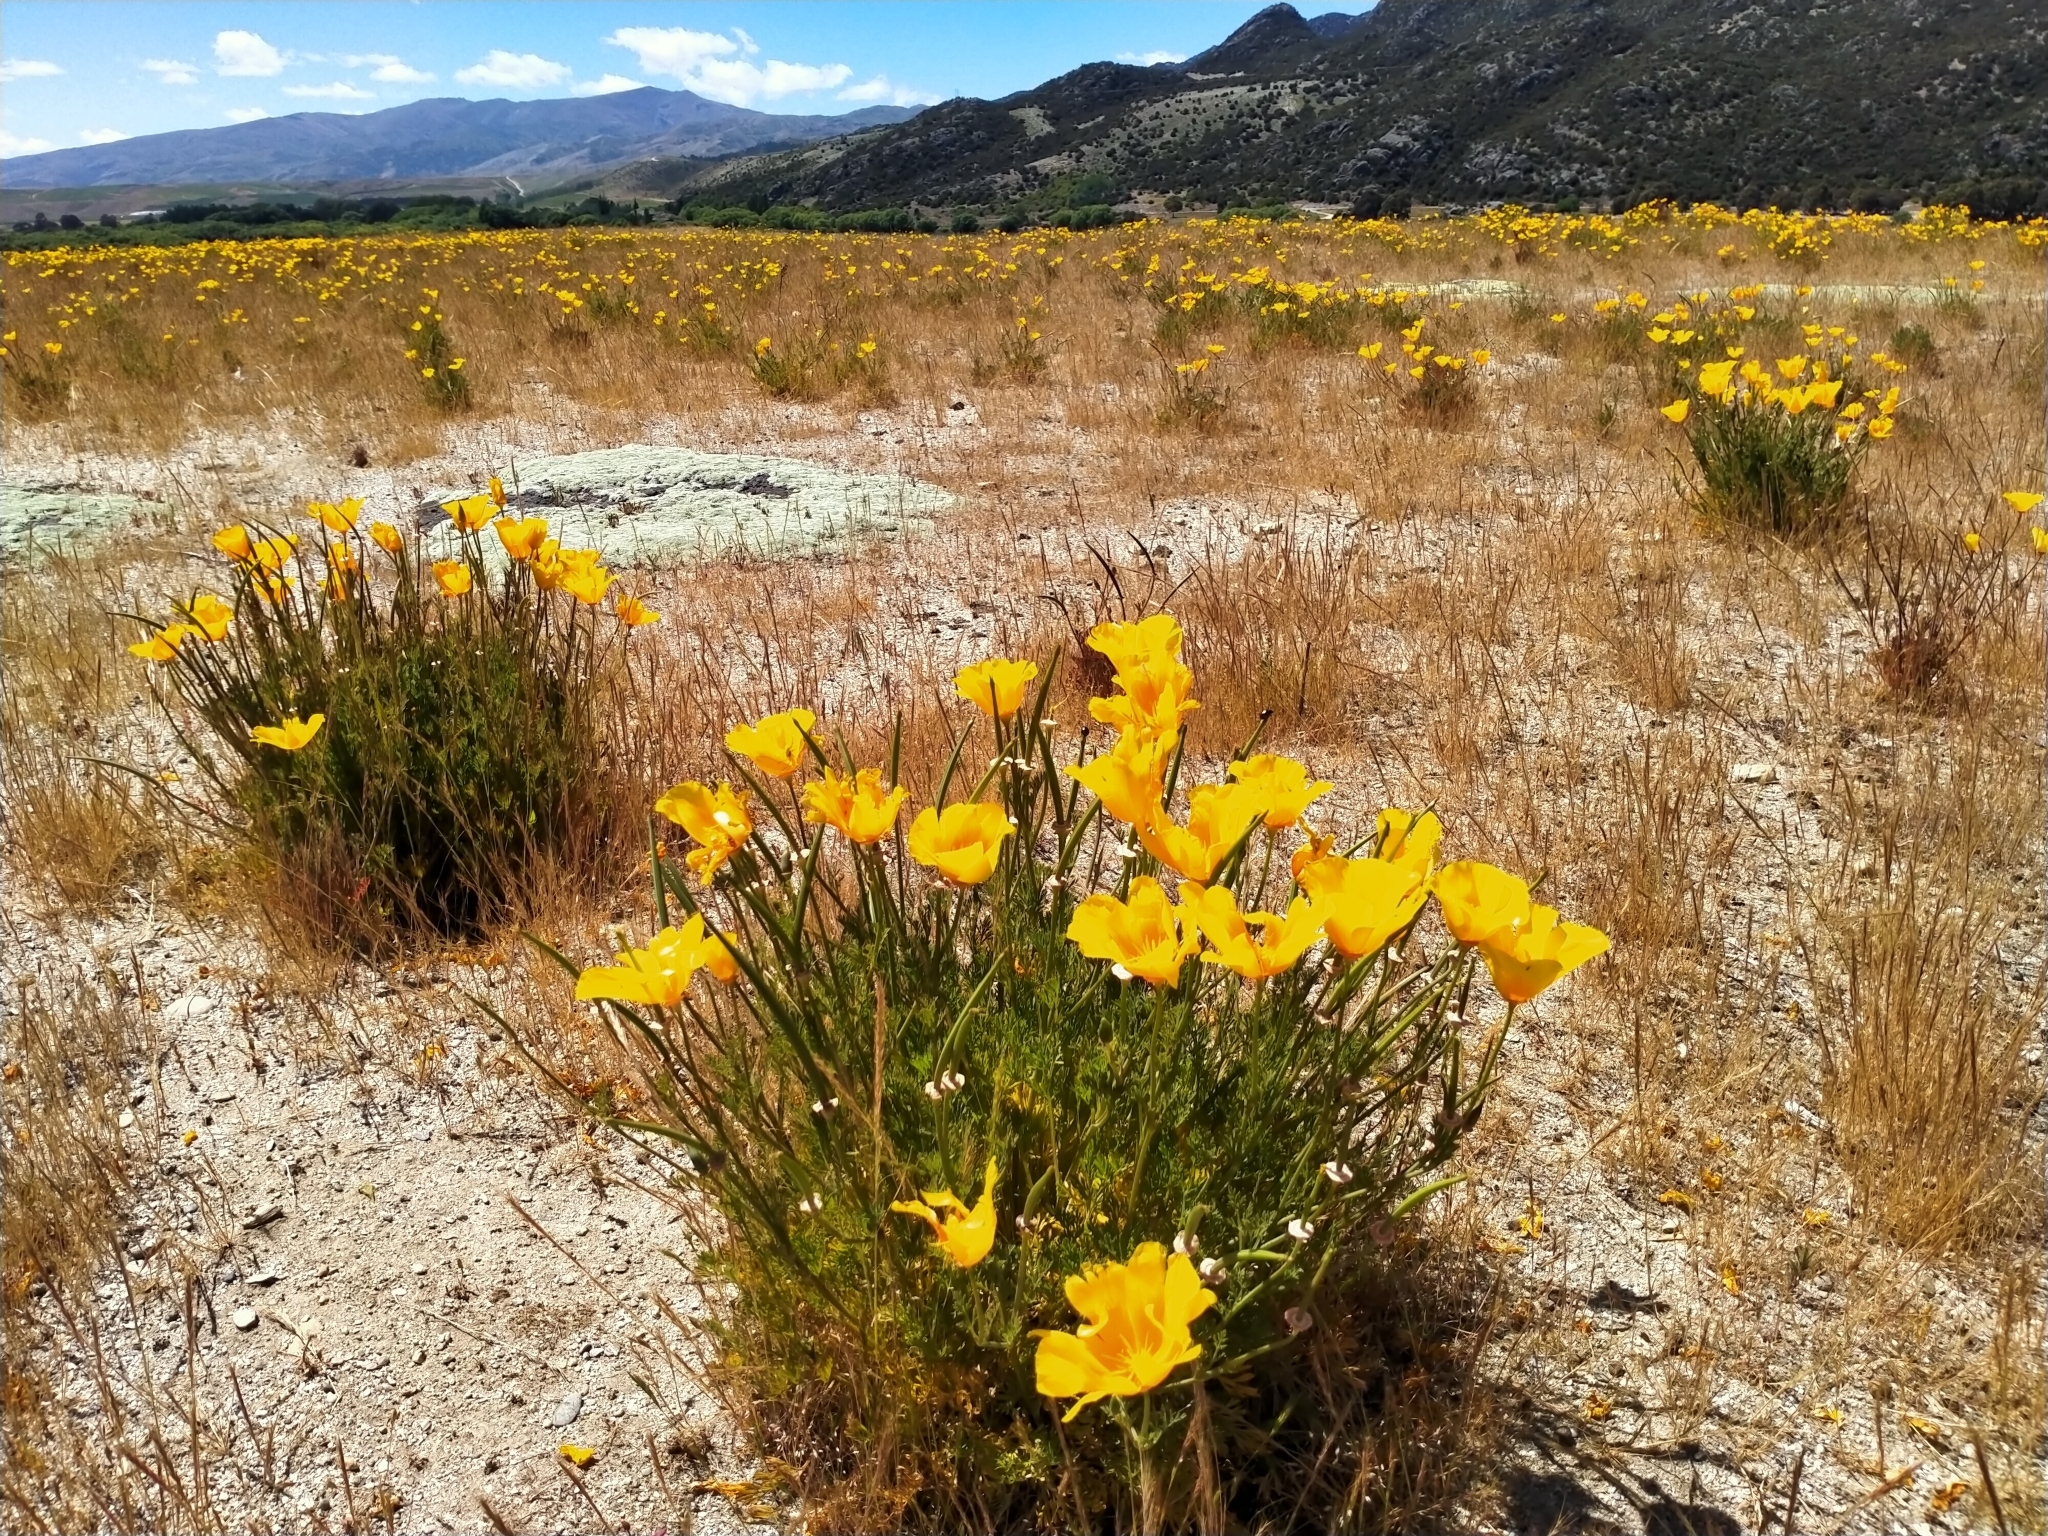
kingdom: Plantae
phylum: Tracheophyta
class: Magnoliopsida
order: Ranunculales
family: Papaveraceae
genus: Eschscholzia
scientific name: Eschscholzia californica
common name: California poppy
